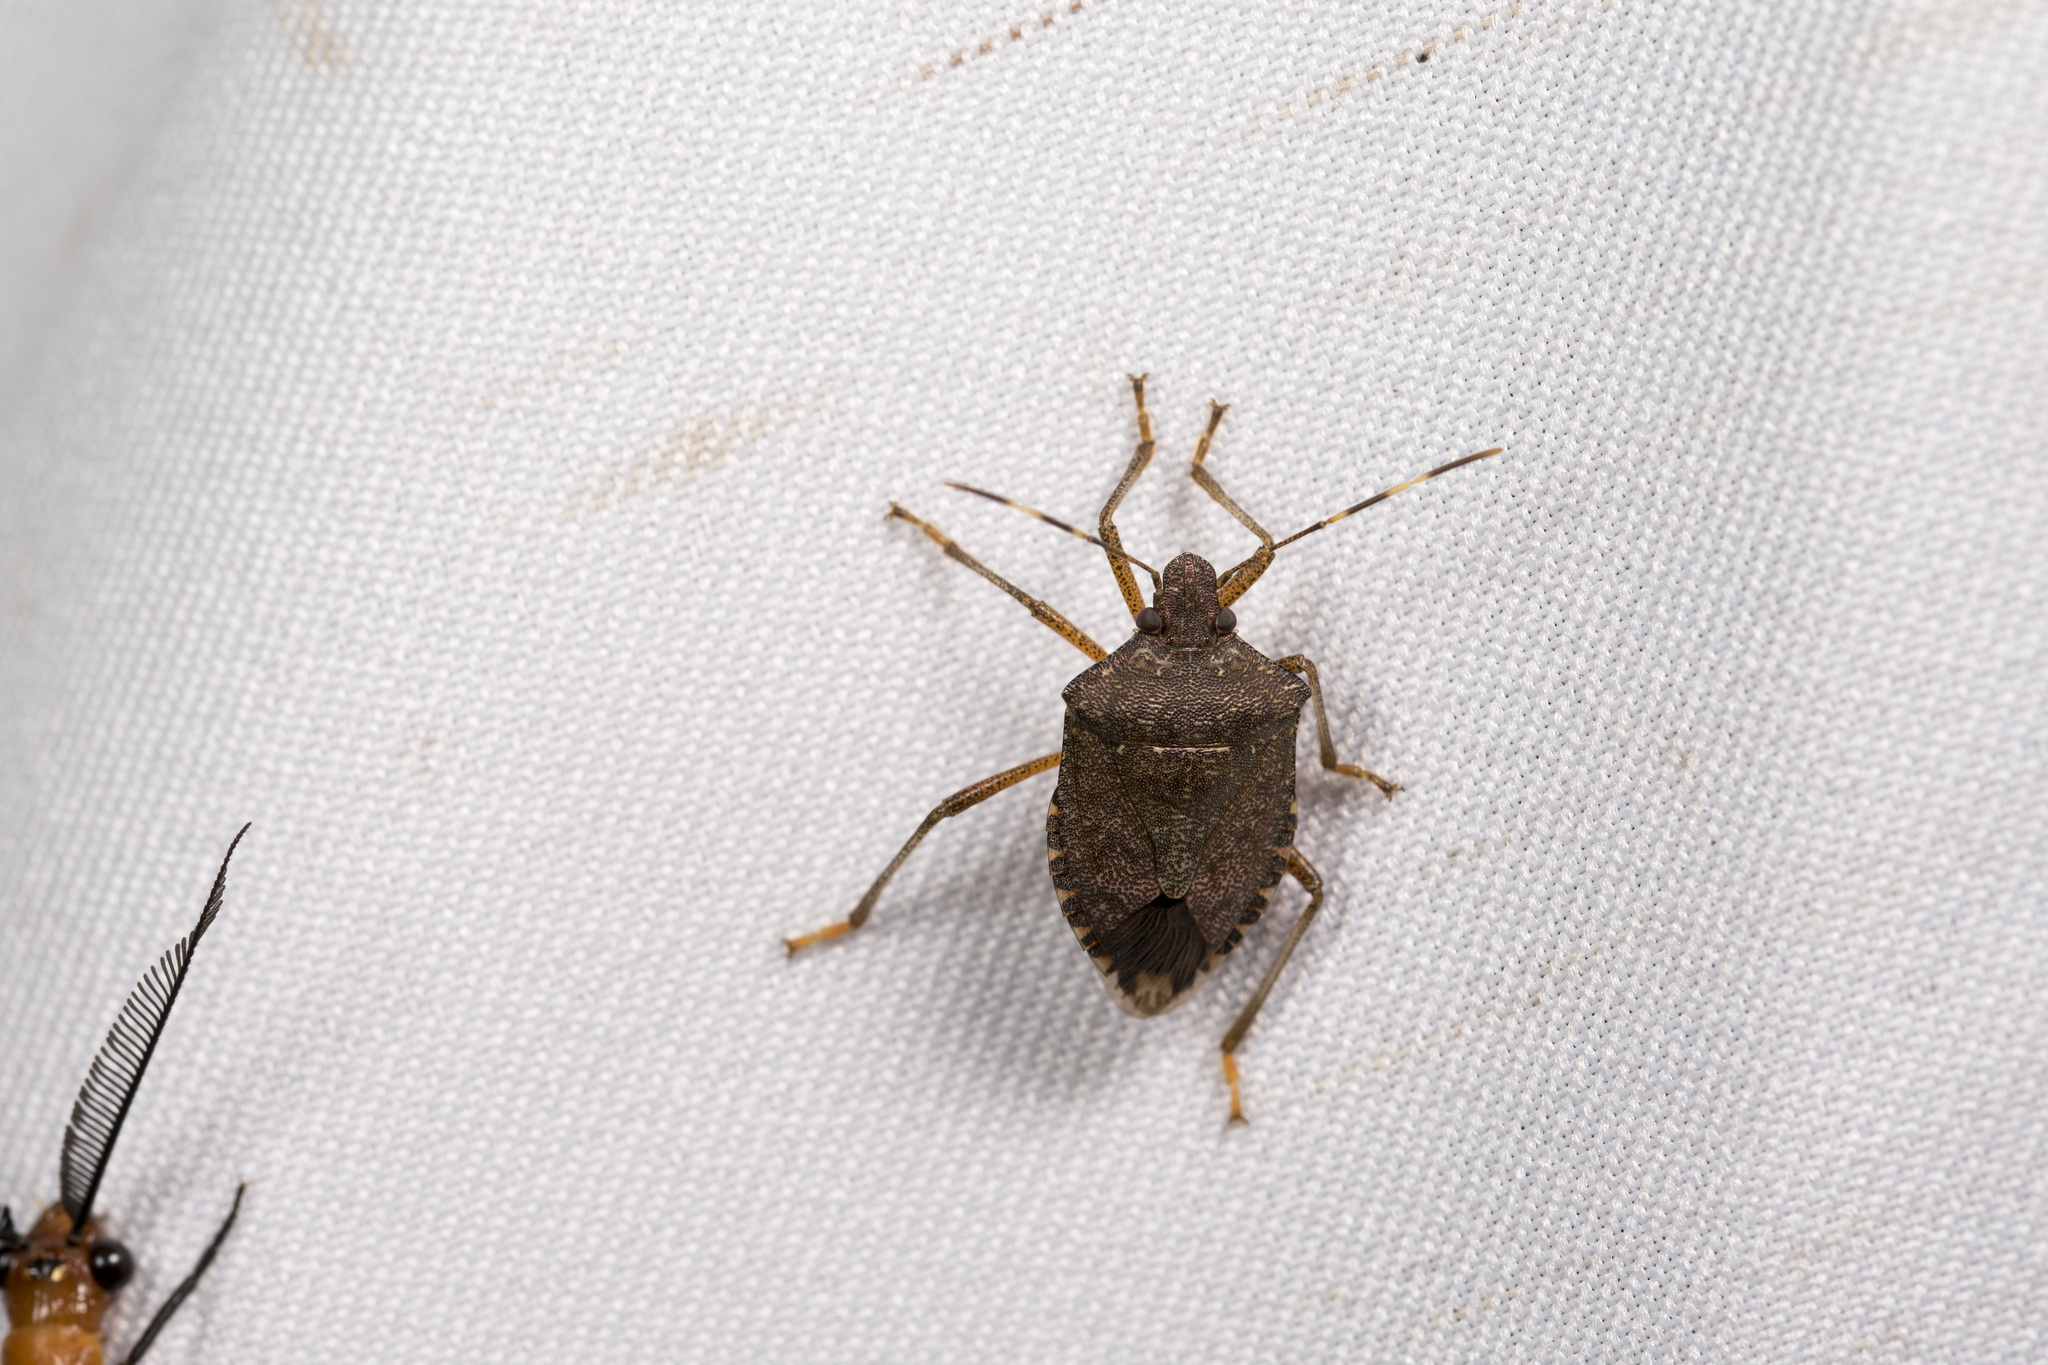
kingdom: Animalia
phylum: Arthropoda
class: Insecta
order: Hemiptera
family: Pentatomidae
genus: Halyomorpha
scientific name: Halyomorpha halys
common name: Brown marmorated stink bug
